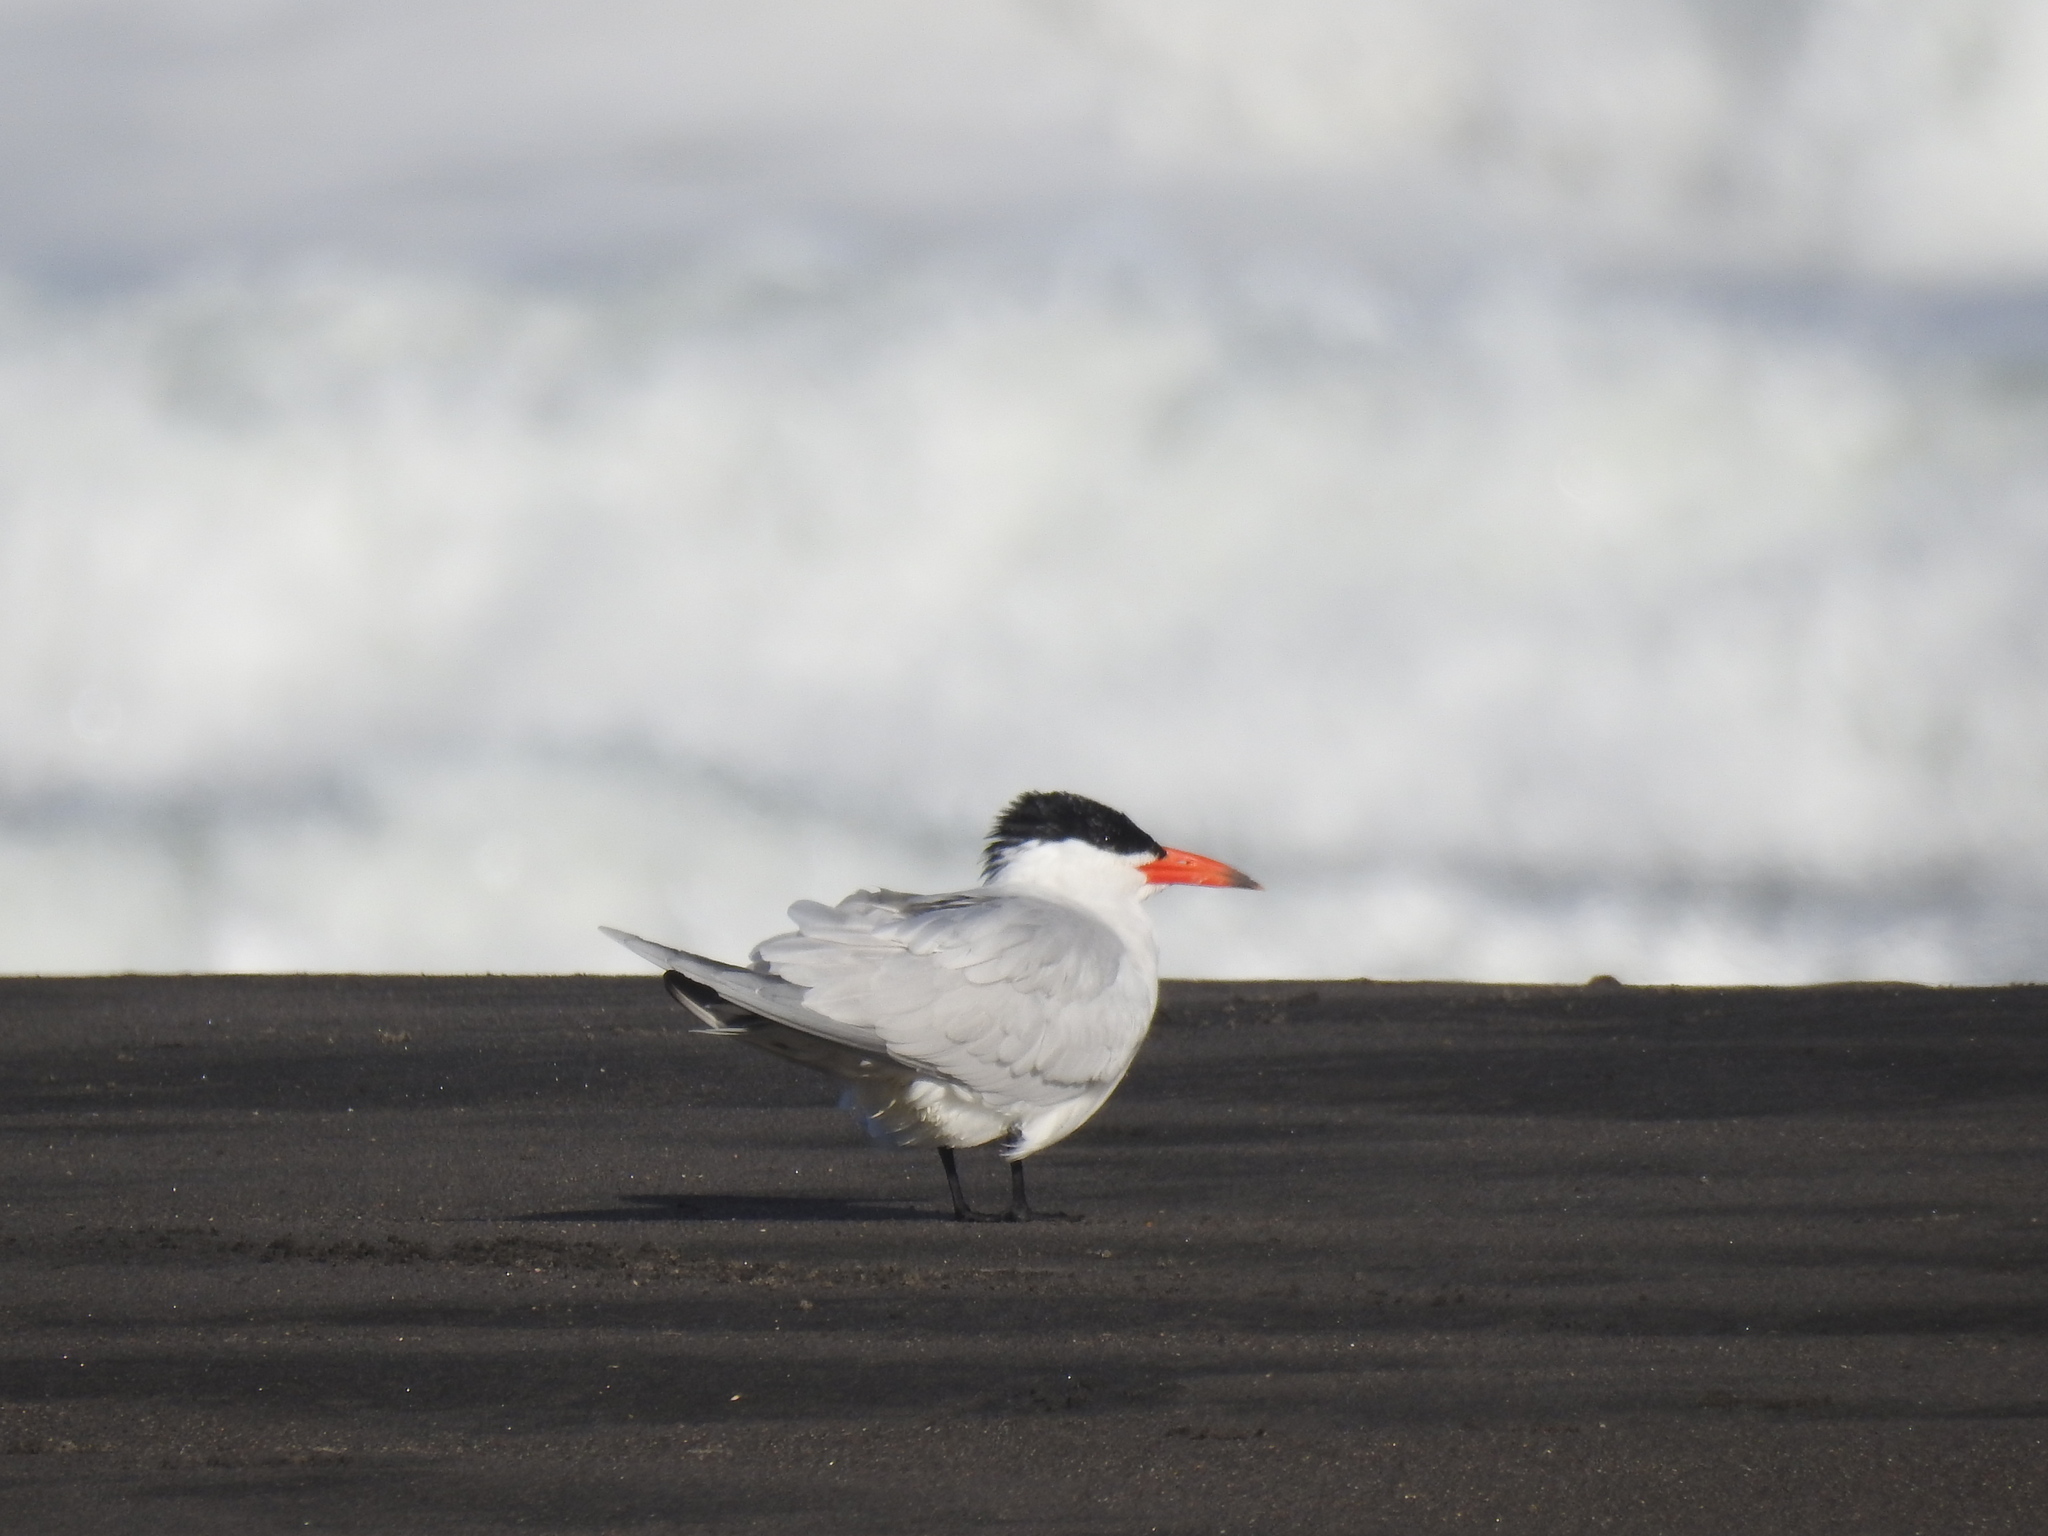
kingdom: Animalia
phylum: Chordata
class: Aves
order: Charadriiformes
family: Laridae
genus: Hydroprogne
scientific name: Hydroprogne caspia
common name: Caspian tern
